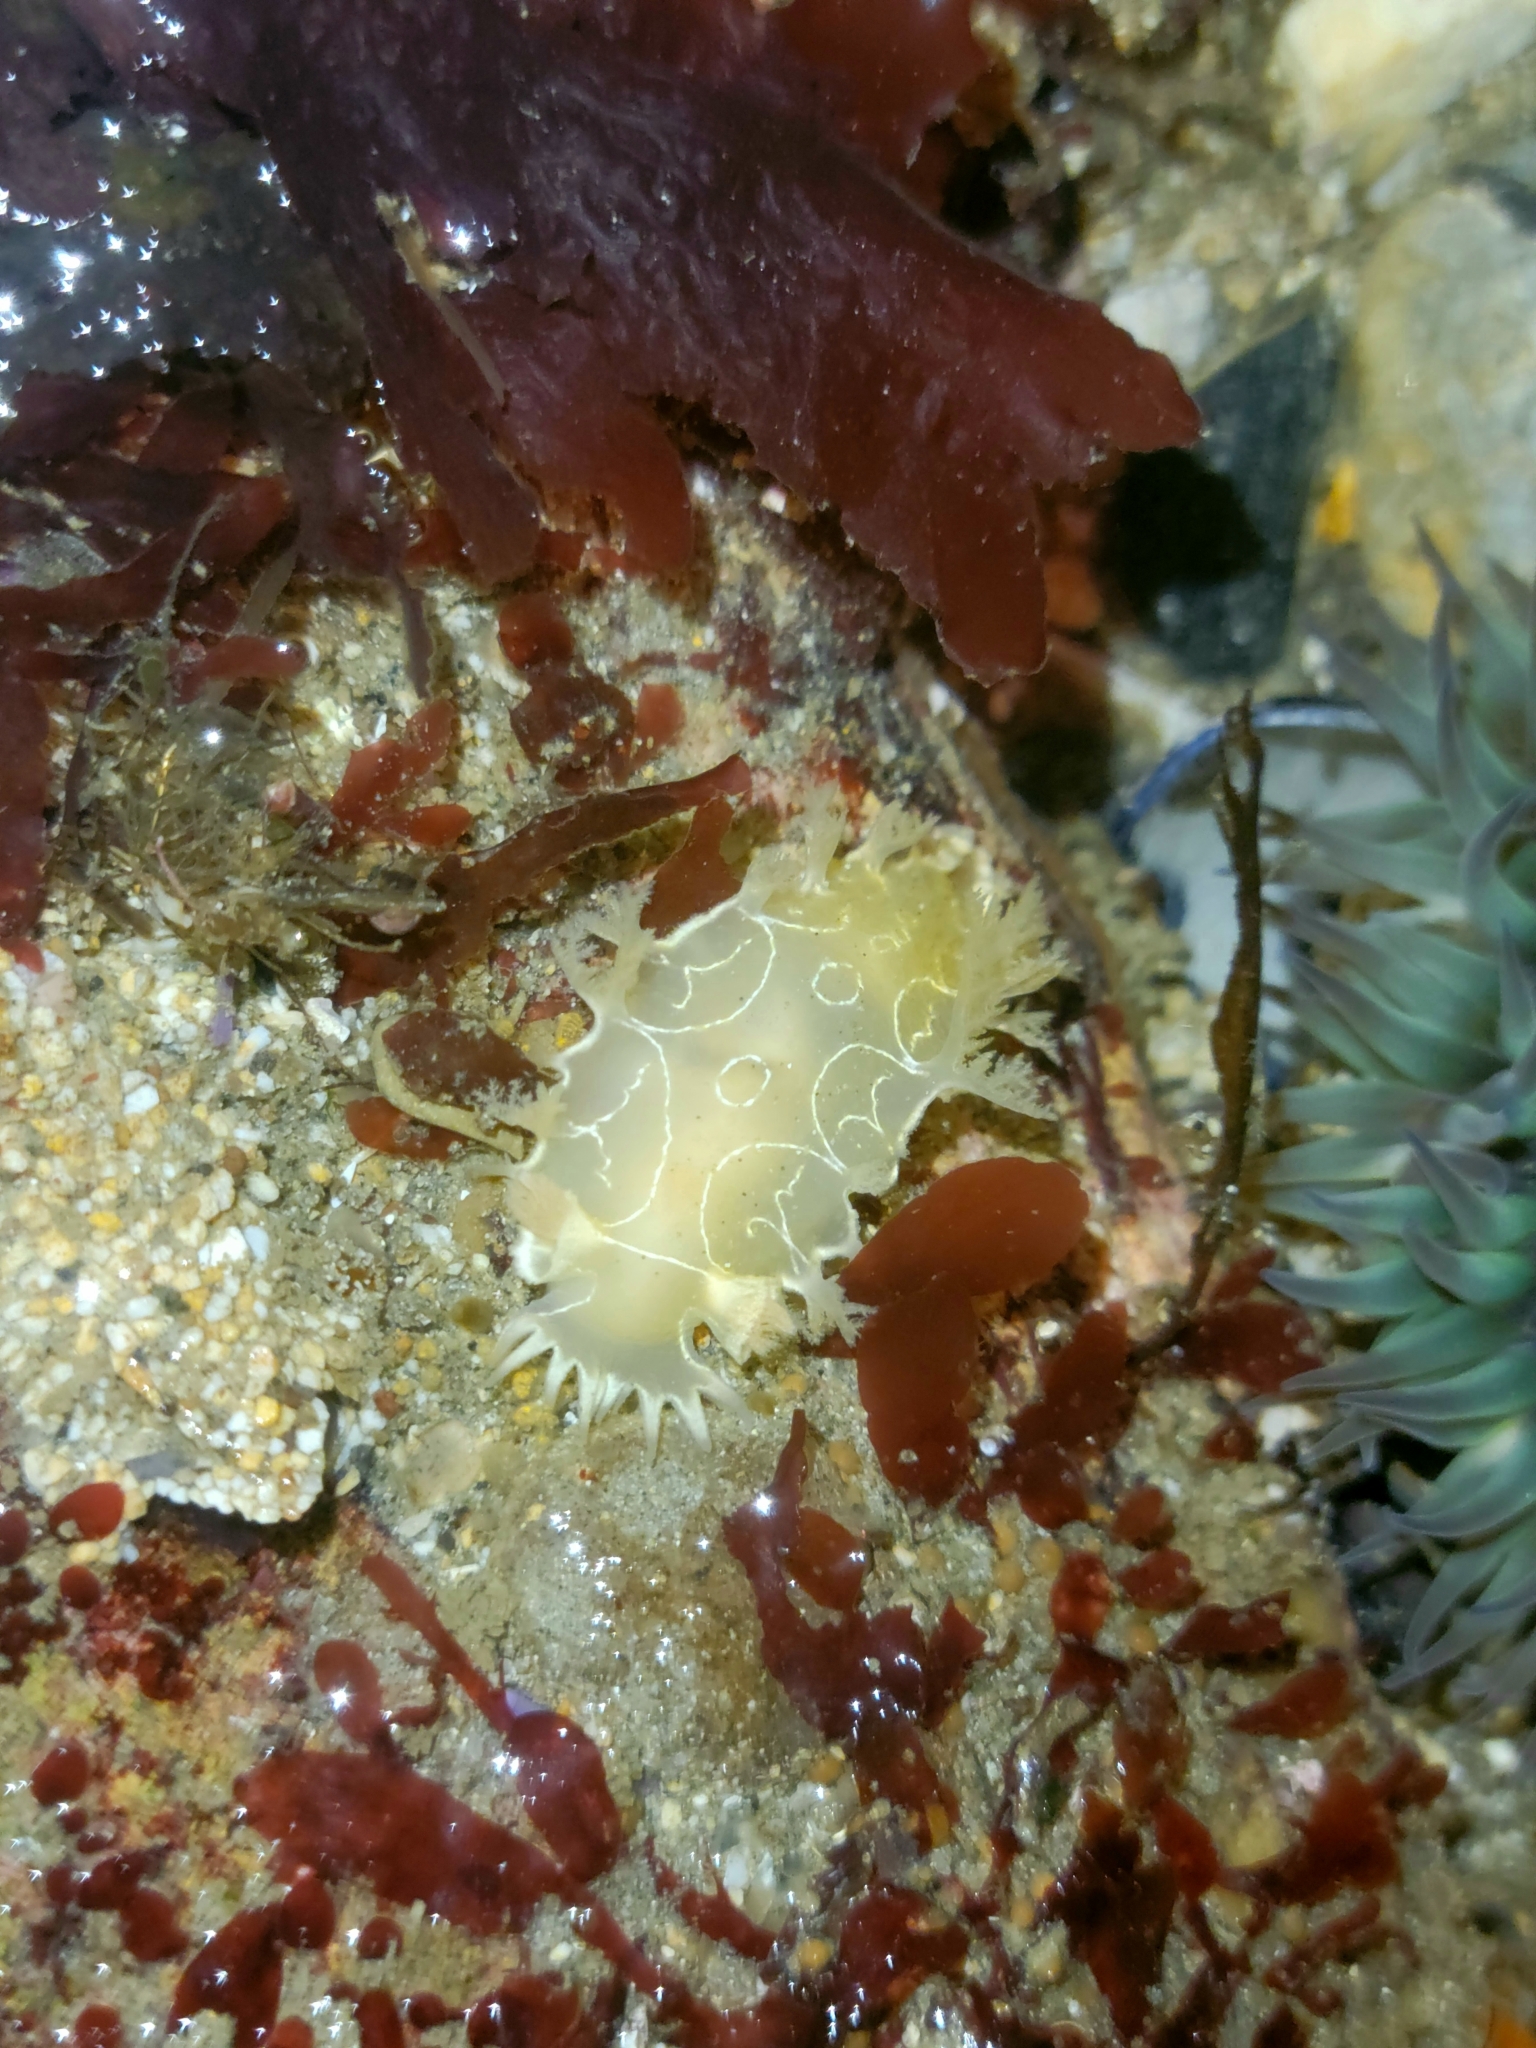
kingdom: Animalia
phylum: Mollusca
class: Gastropoda
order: Nudibranchia
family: Tritoniidae
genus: Tritonia
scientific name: Tritonia festiva
